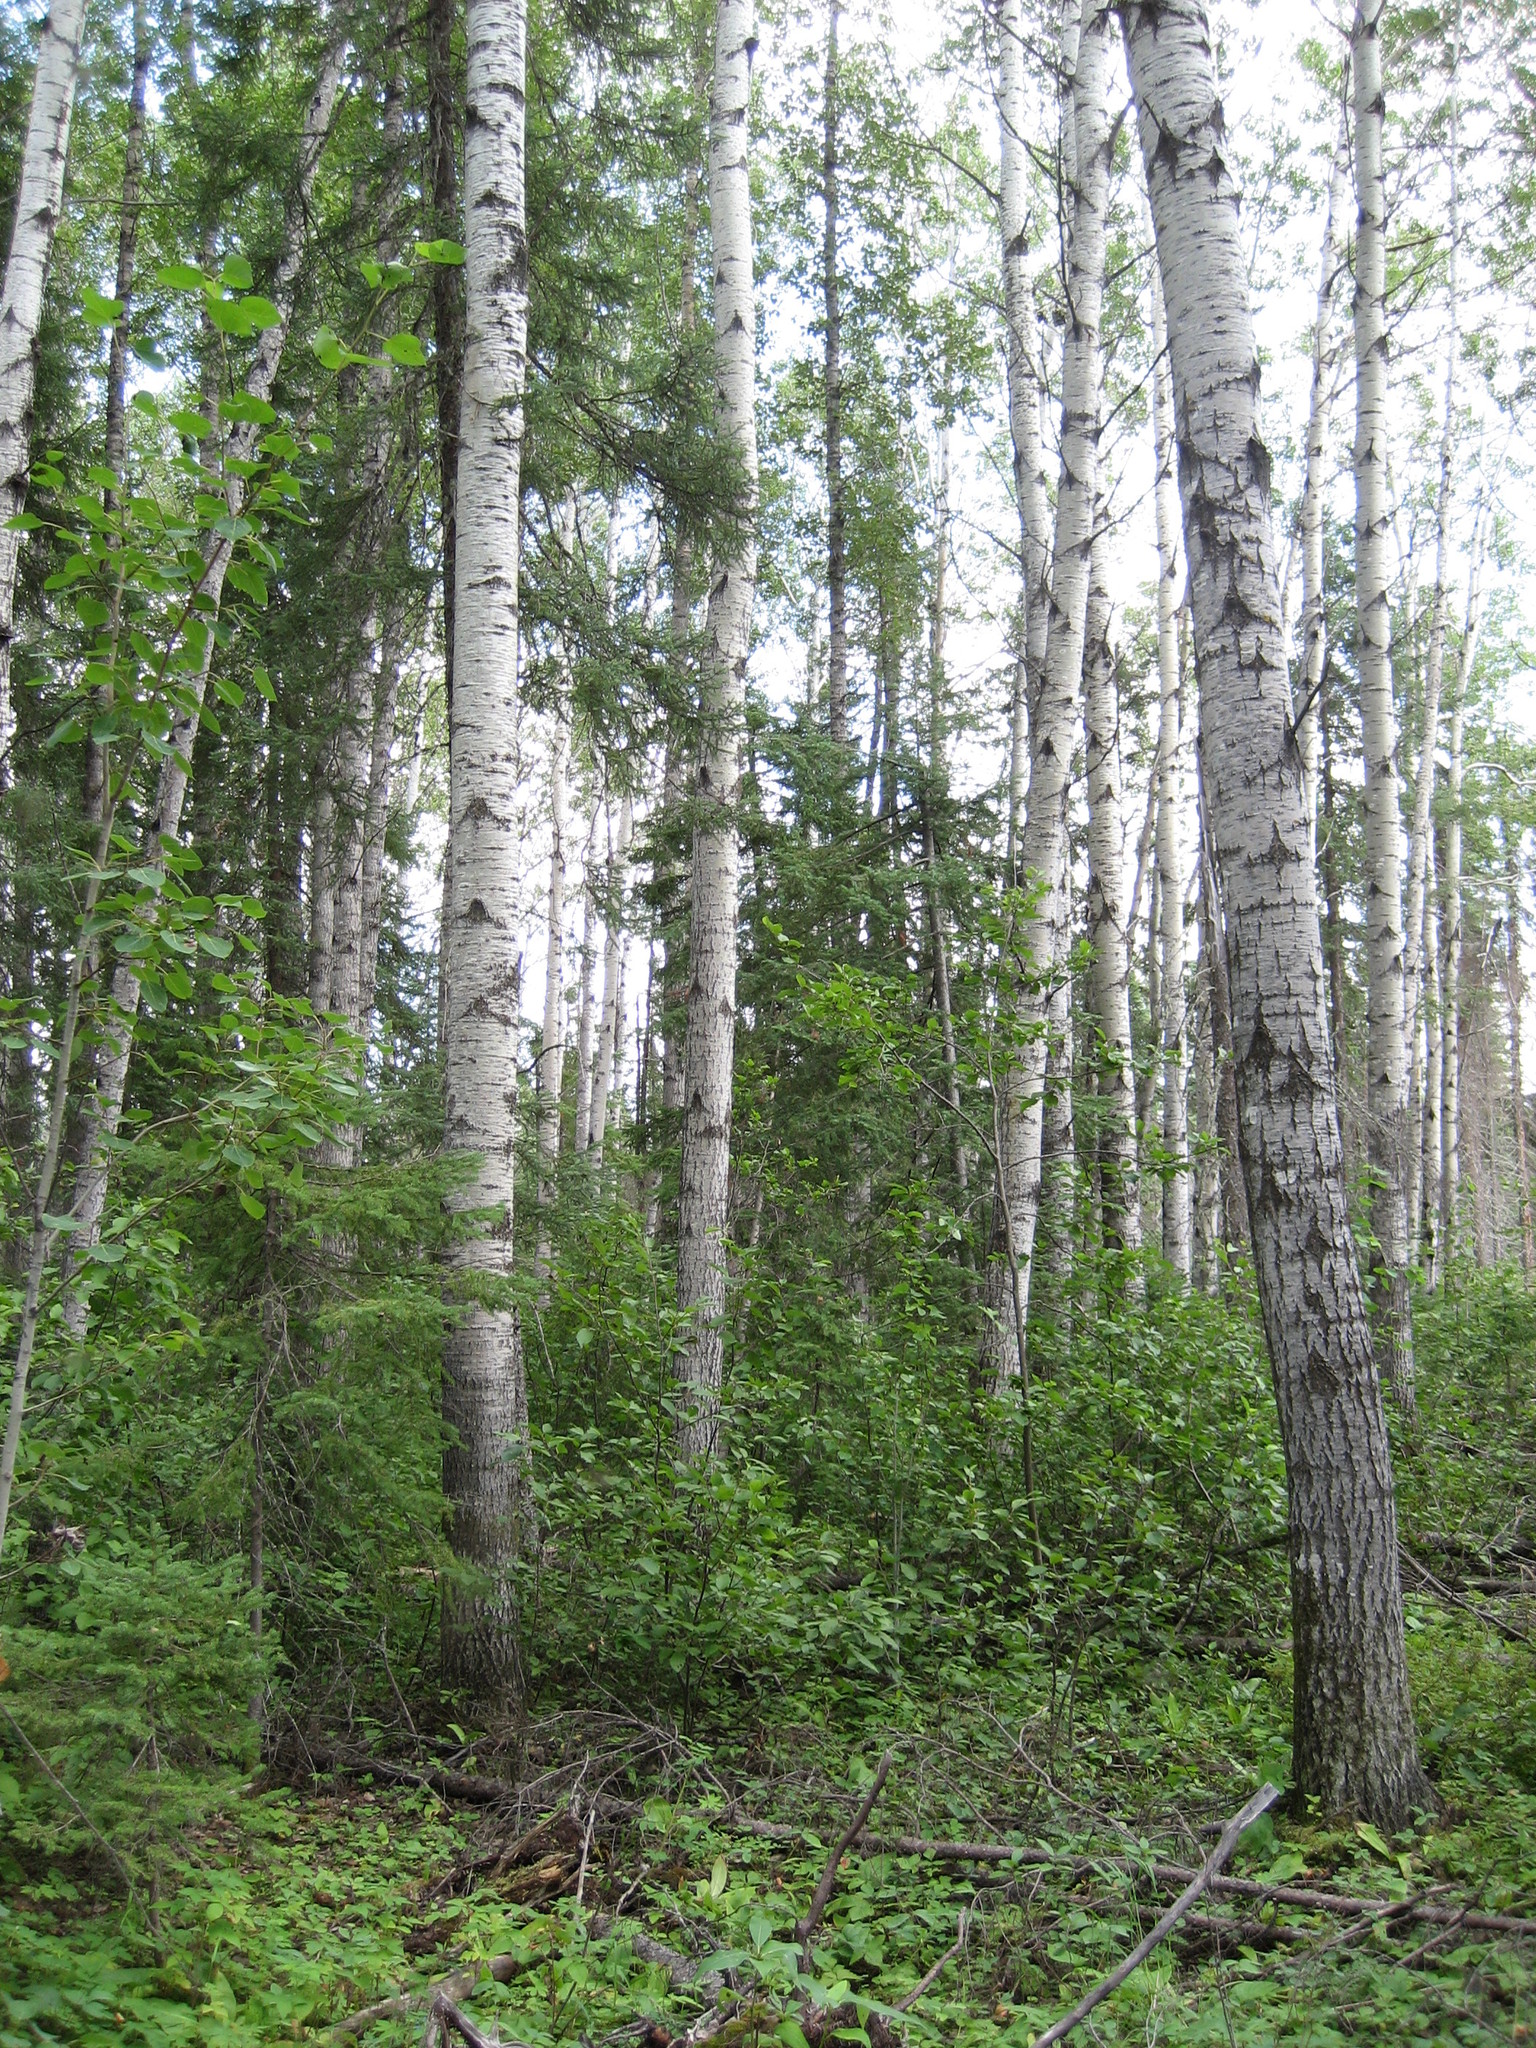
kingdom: Plantae
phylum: Tracheophyta
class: Magnoliopsida
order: Malpighiales
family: Salicaceae
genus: Populus
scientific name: Populus tremuloides
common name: Quaking aspen
